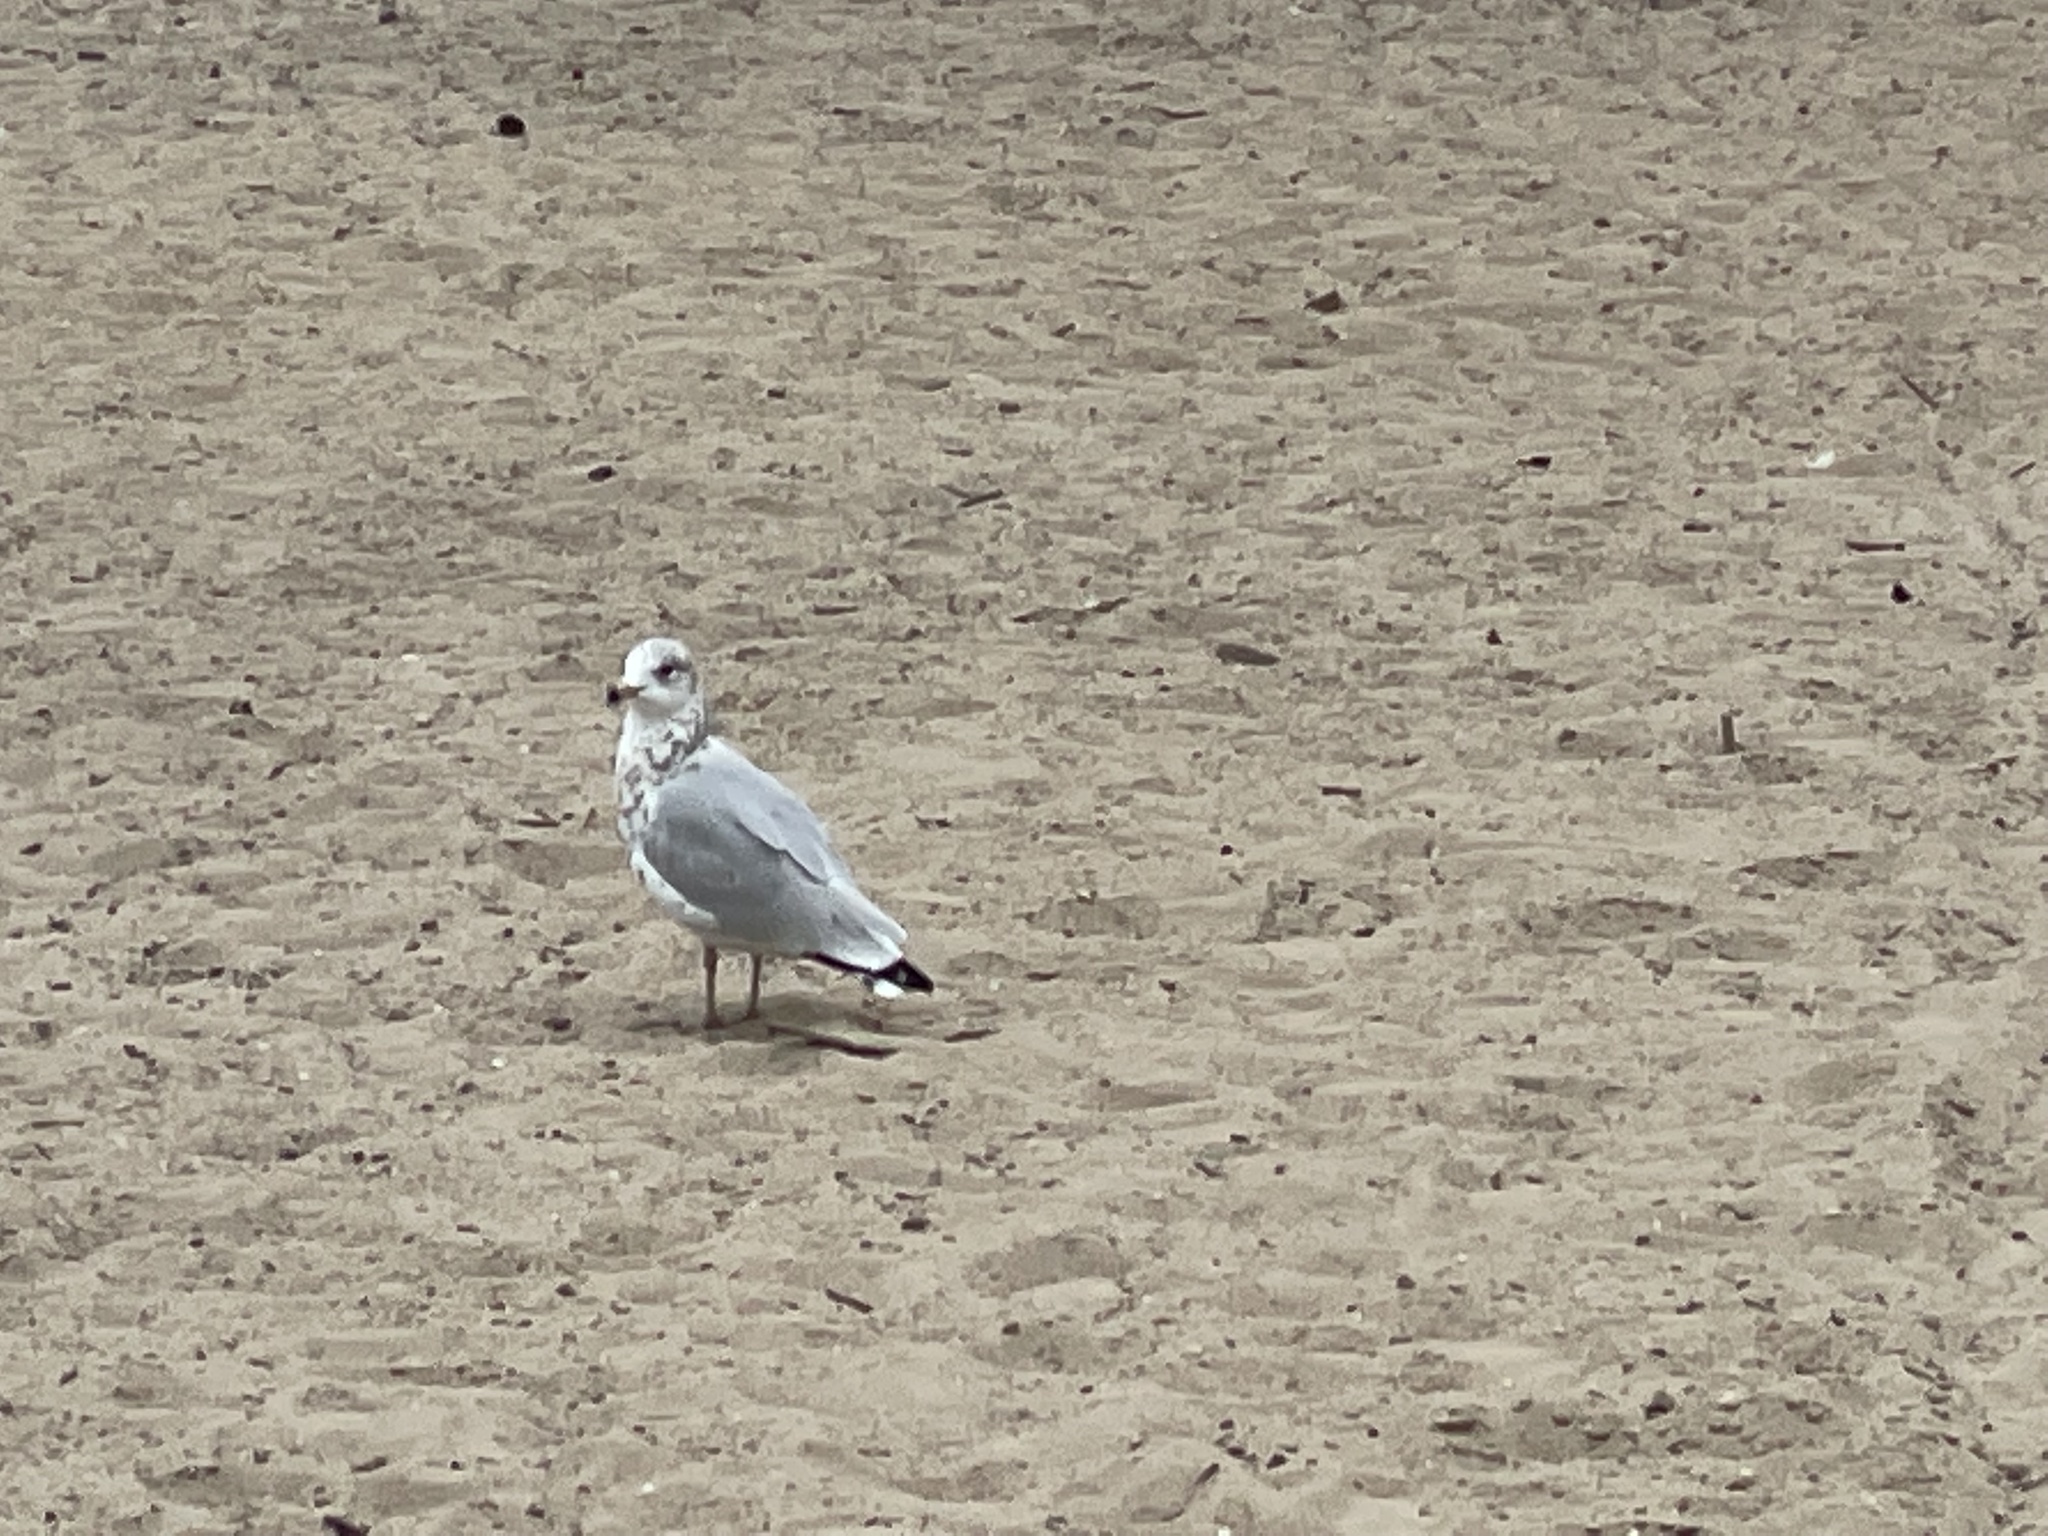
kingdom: Animalia
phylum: Chordata
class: Aves
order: Charadriiformes
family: Laridae
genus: Larus
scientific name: Larus delawarensis
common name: Ring-billed gull
